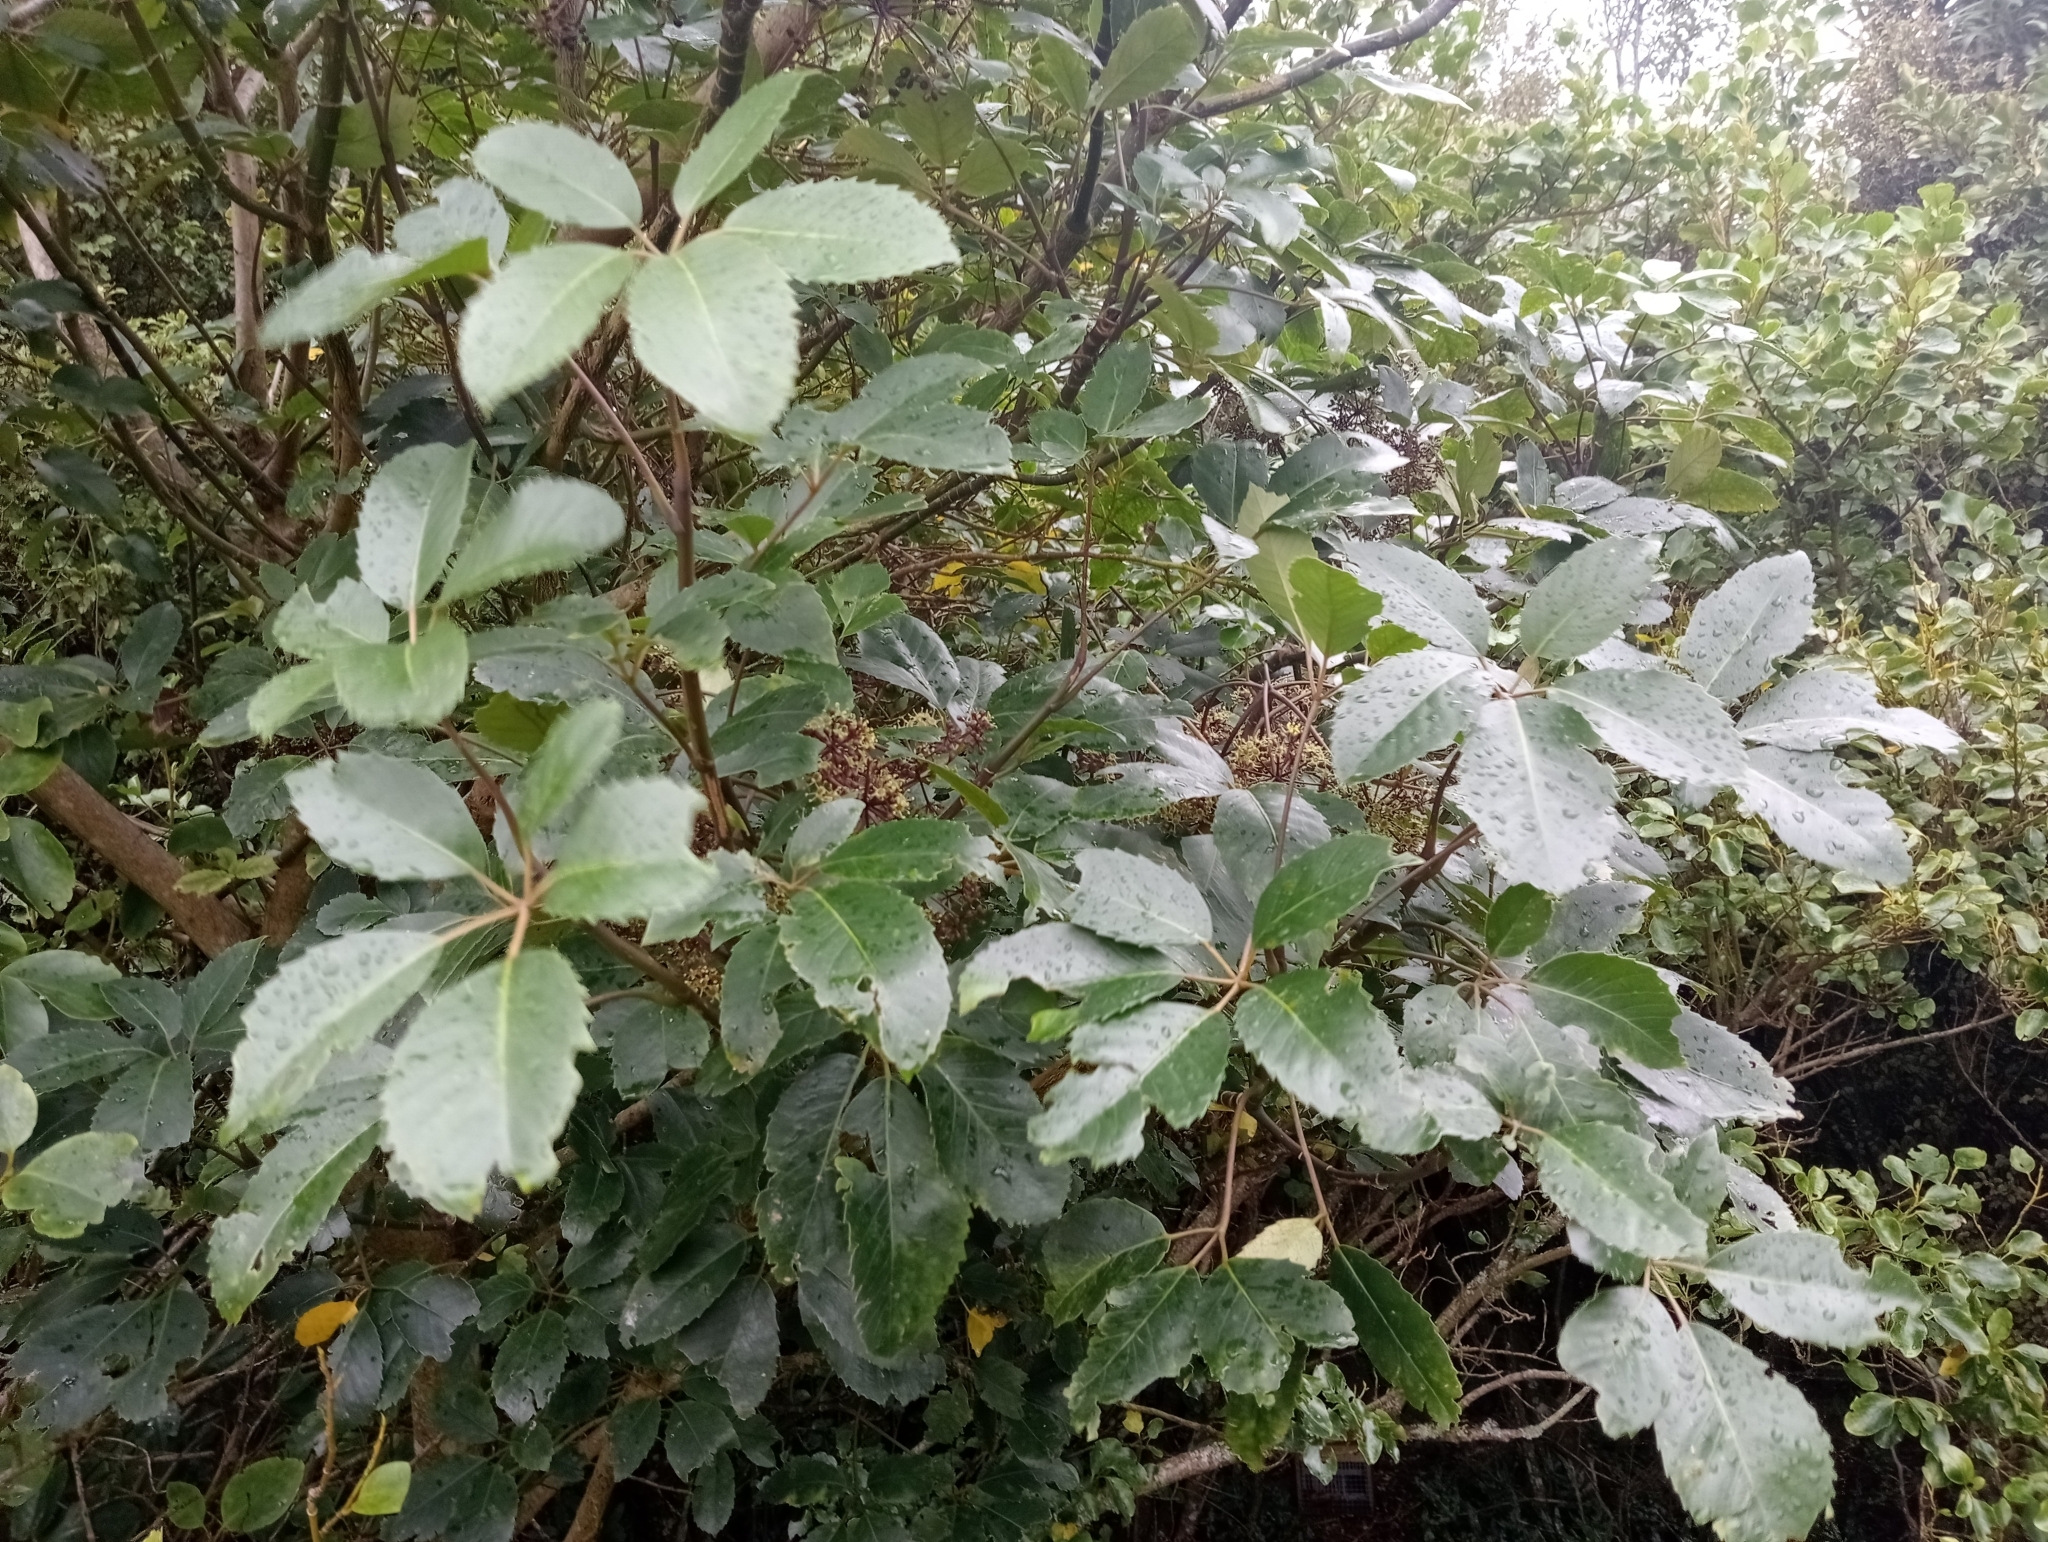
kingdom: Plantae
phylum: Tracheophyta
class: Magnoliopsida
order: Apiales
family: Araliaceae
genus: Neopanax
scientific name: Neopanax arboreus
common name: Five-fingers
